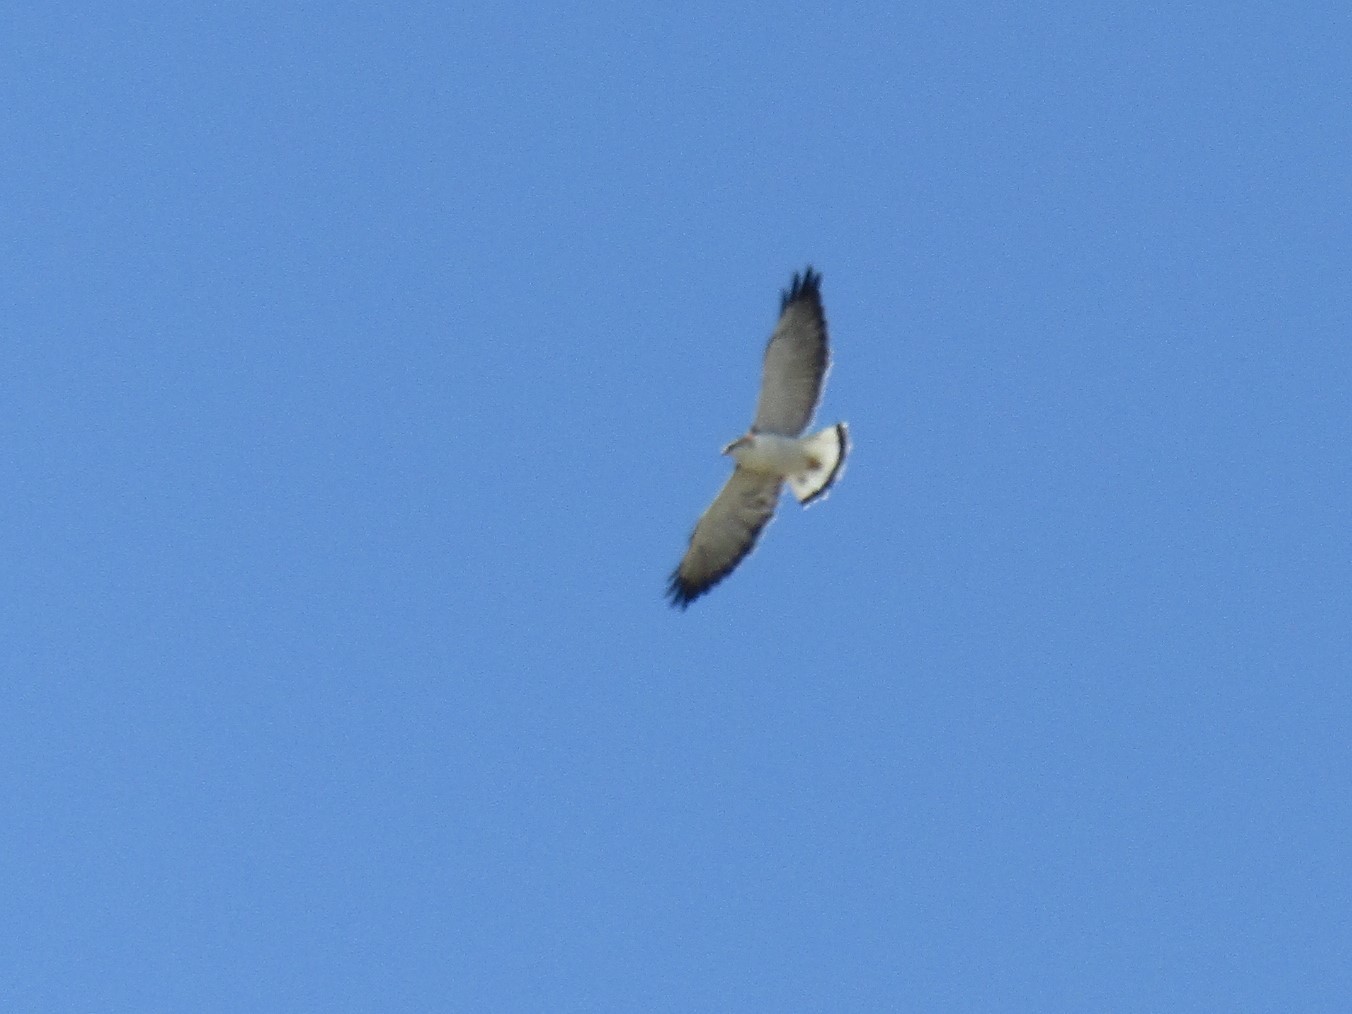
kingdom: Animalia
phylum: Chordata
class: Aves
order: Accipitriformes
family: Accipitridae
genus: Buteo
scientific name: Buteo polyosoma
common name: Variable hawk
